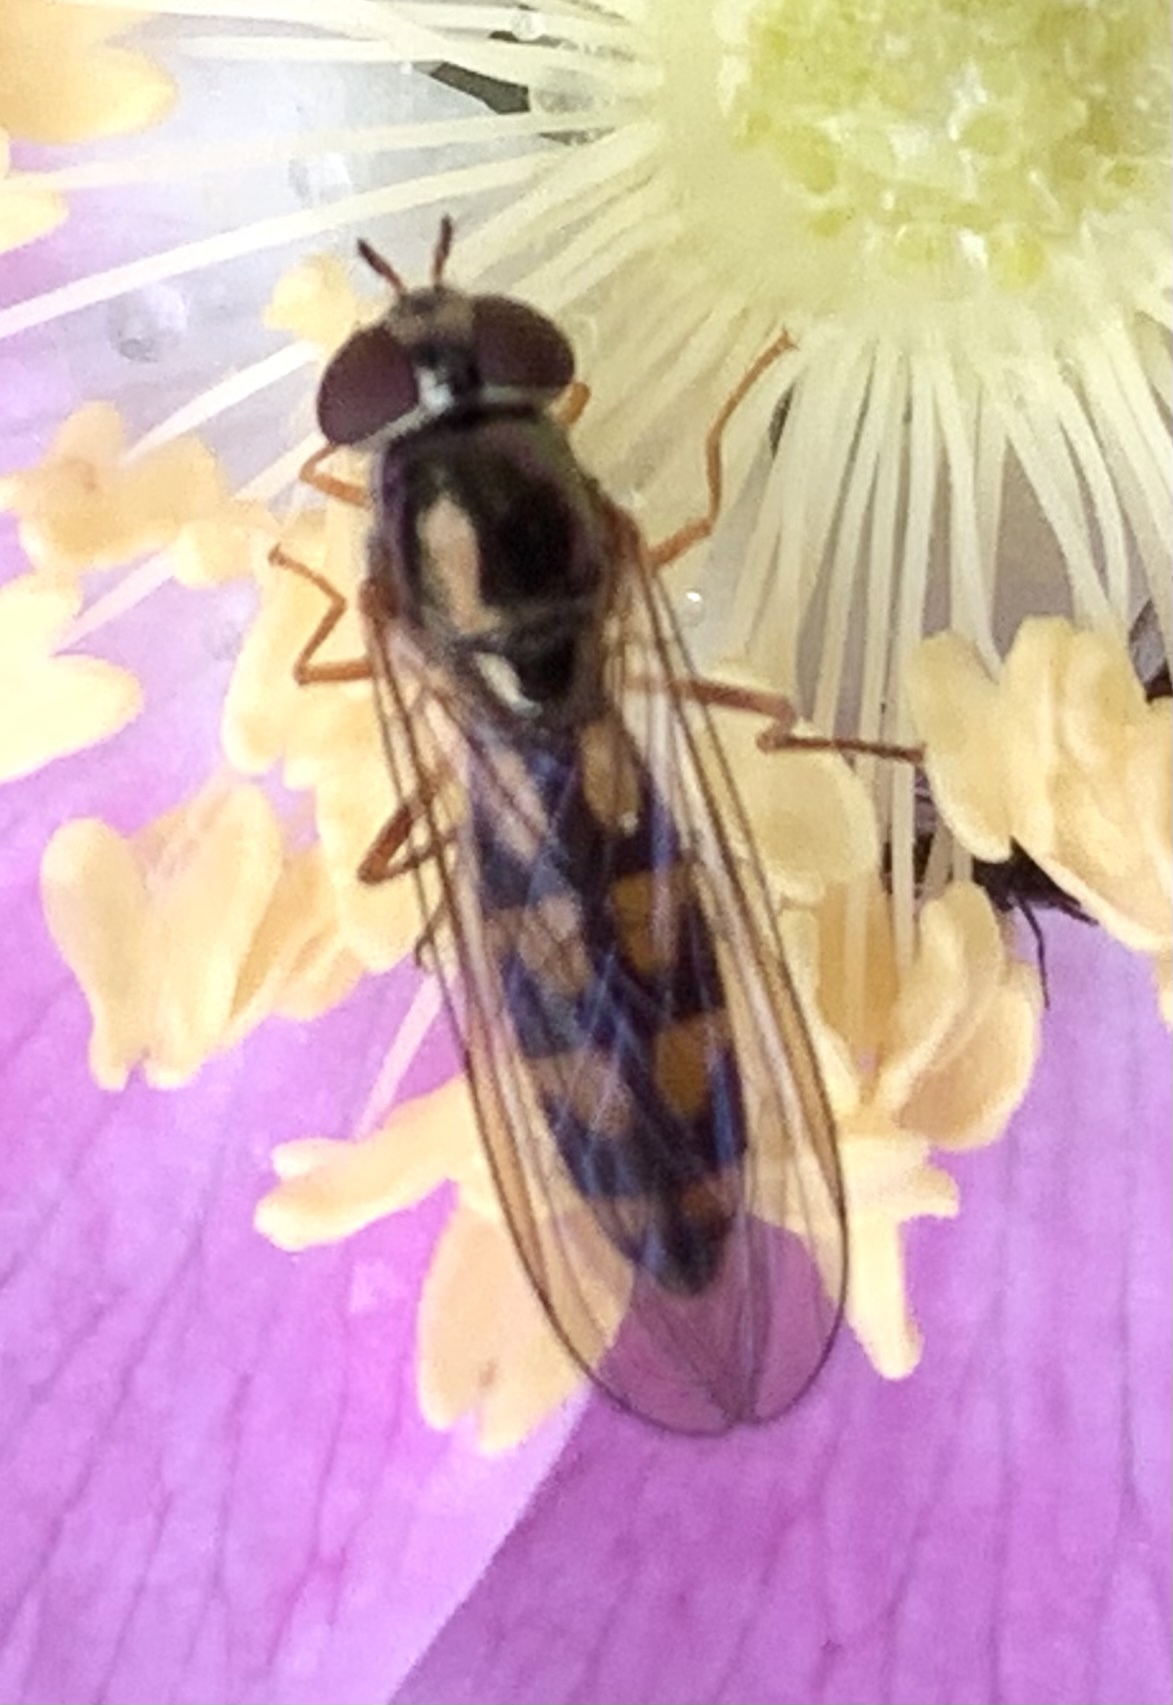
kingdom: Animalia
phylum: Arthropoda
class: Insecta
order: Diptera
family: Syrphidae
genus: Melanostoma
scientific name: Melanostoma mellina
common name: Hover fly
